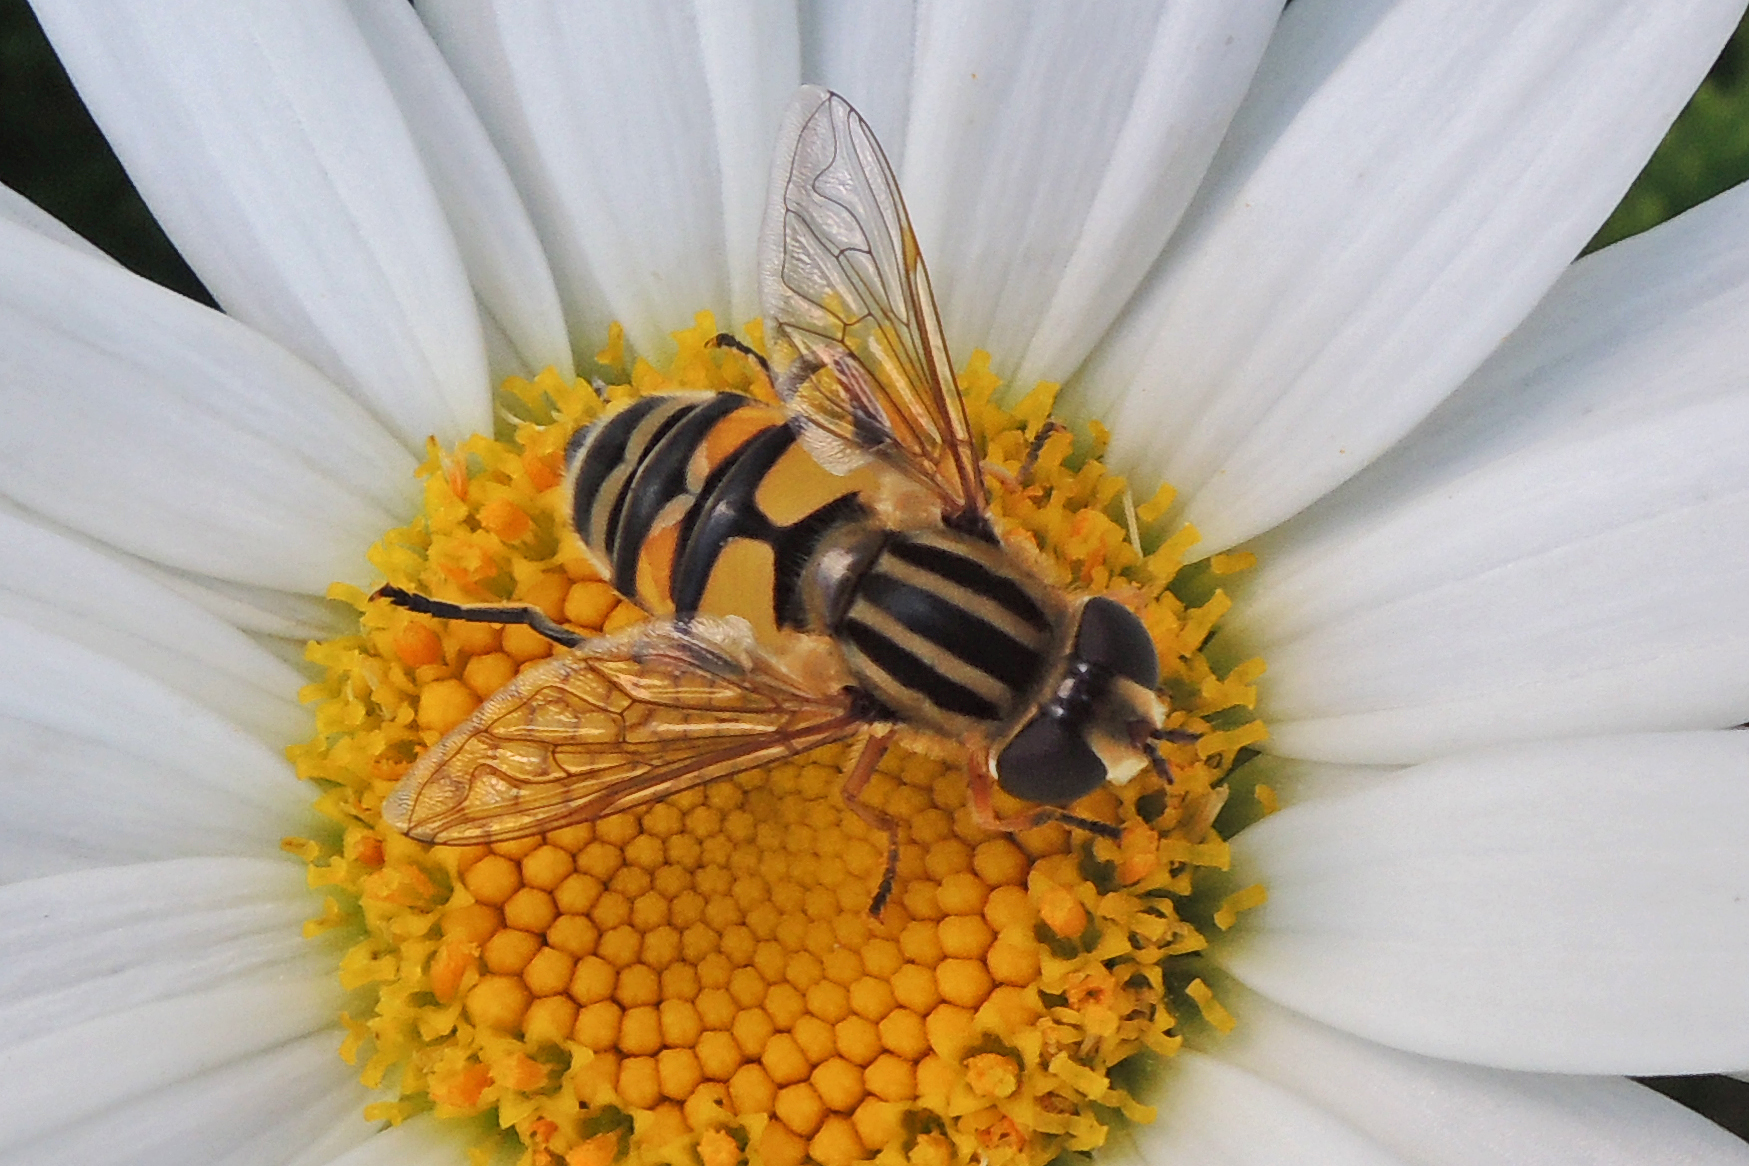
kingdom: Animalia
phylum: Arthropoda
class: Insecta
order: Diptera
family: Syrphidae
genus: Helophilus
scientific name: Helophilus latifrons
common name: Broad-headed marsh fly
